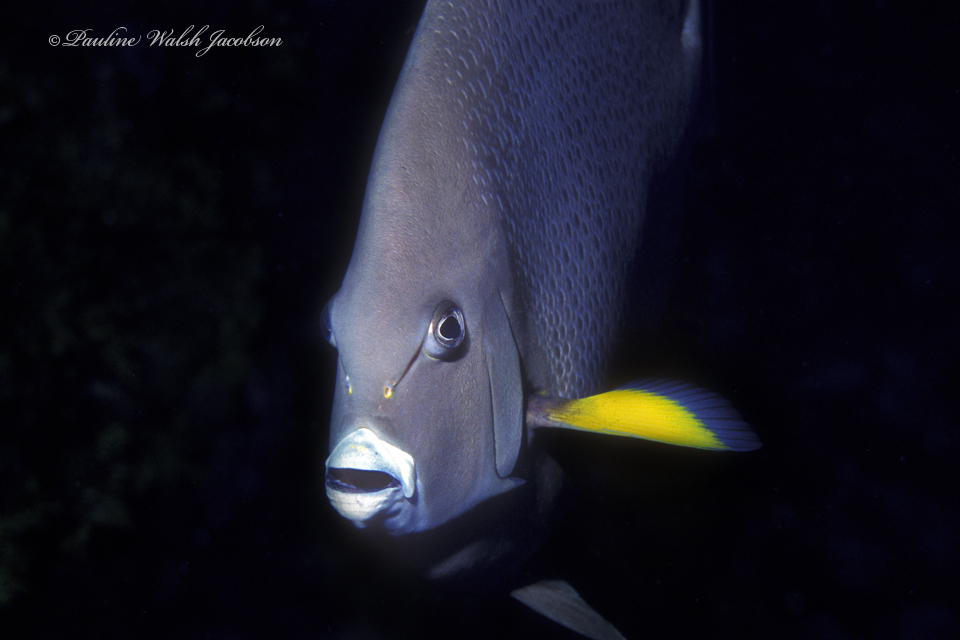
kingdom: Animalia
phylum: Chordata
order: Perciformes
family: Pomacanthidae
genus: Pomacanthus
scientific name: Pomacanthus arcuatus
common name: Gray angelfish
